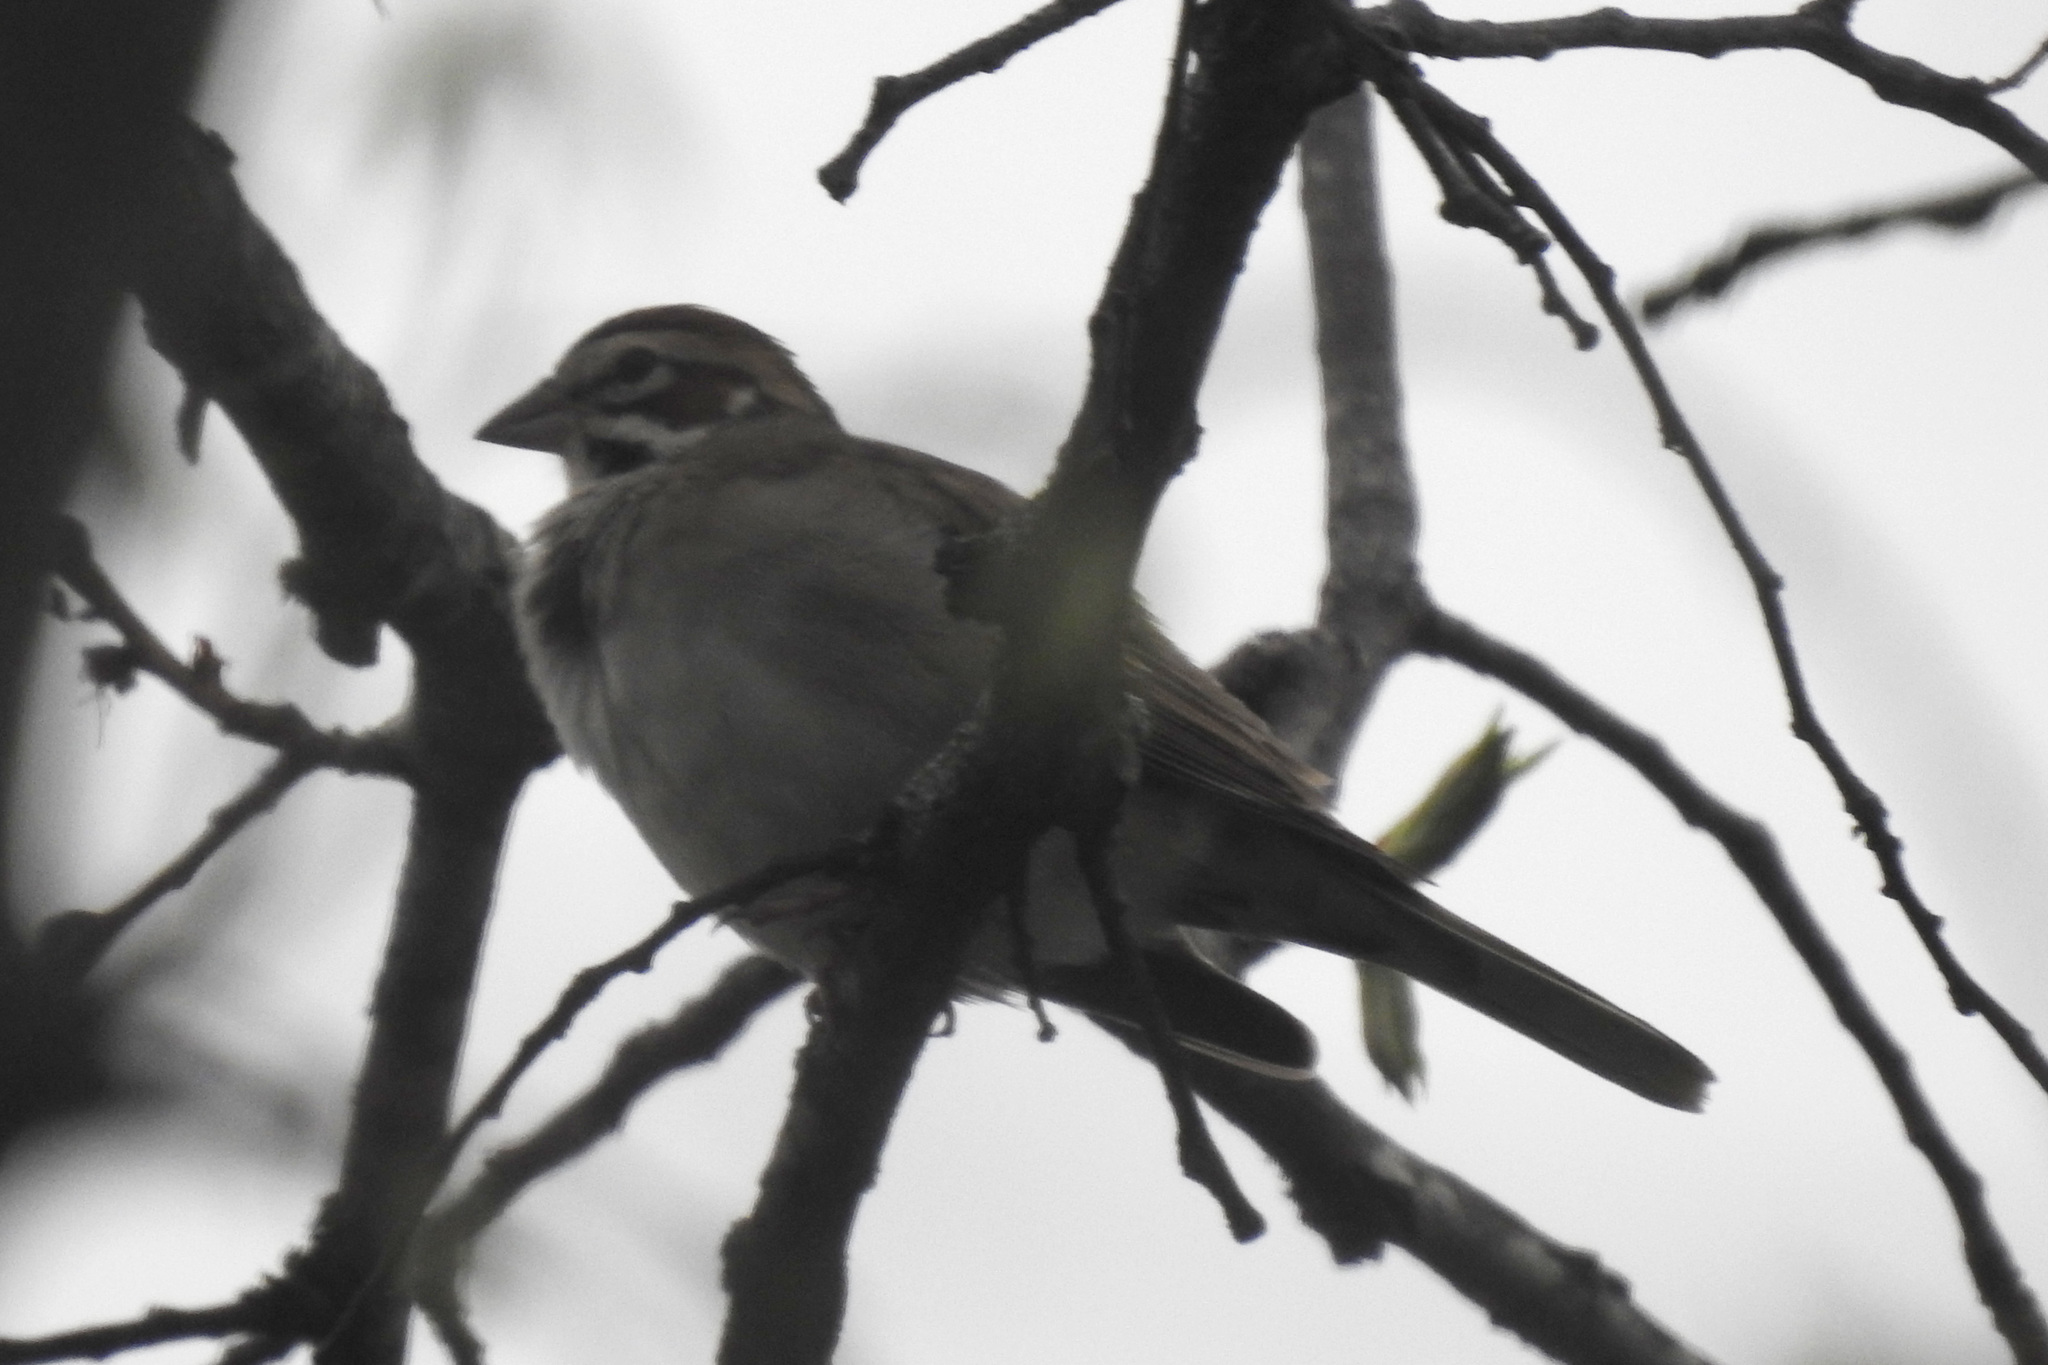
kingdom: Animalia
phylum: Chordata
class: Aves
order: Passeriformes
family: Passerellidae
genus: Chondestes
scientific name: Chondestes grammacus
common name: Lark sparrow
